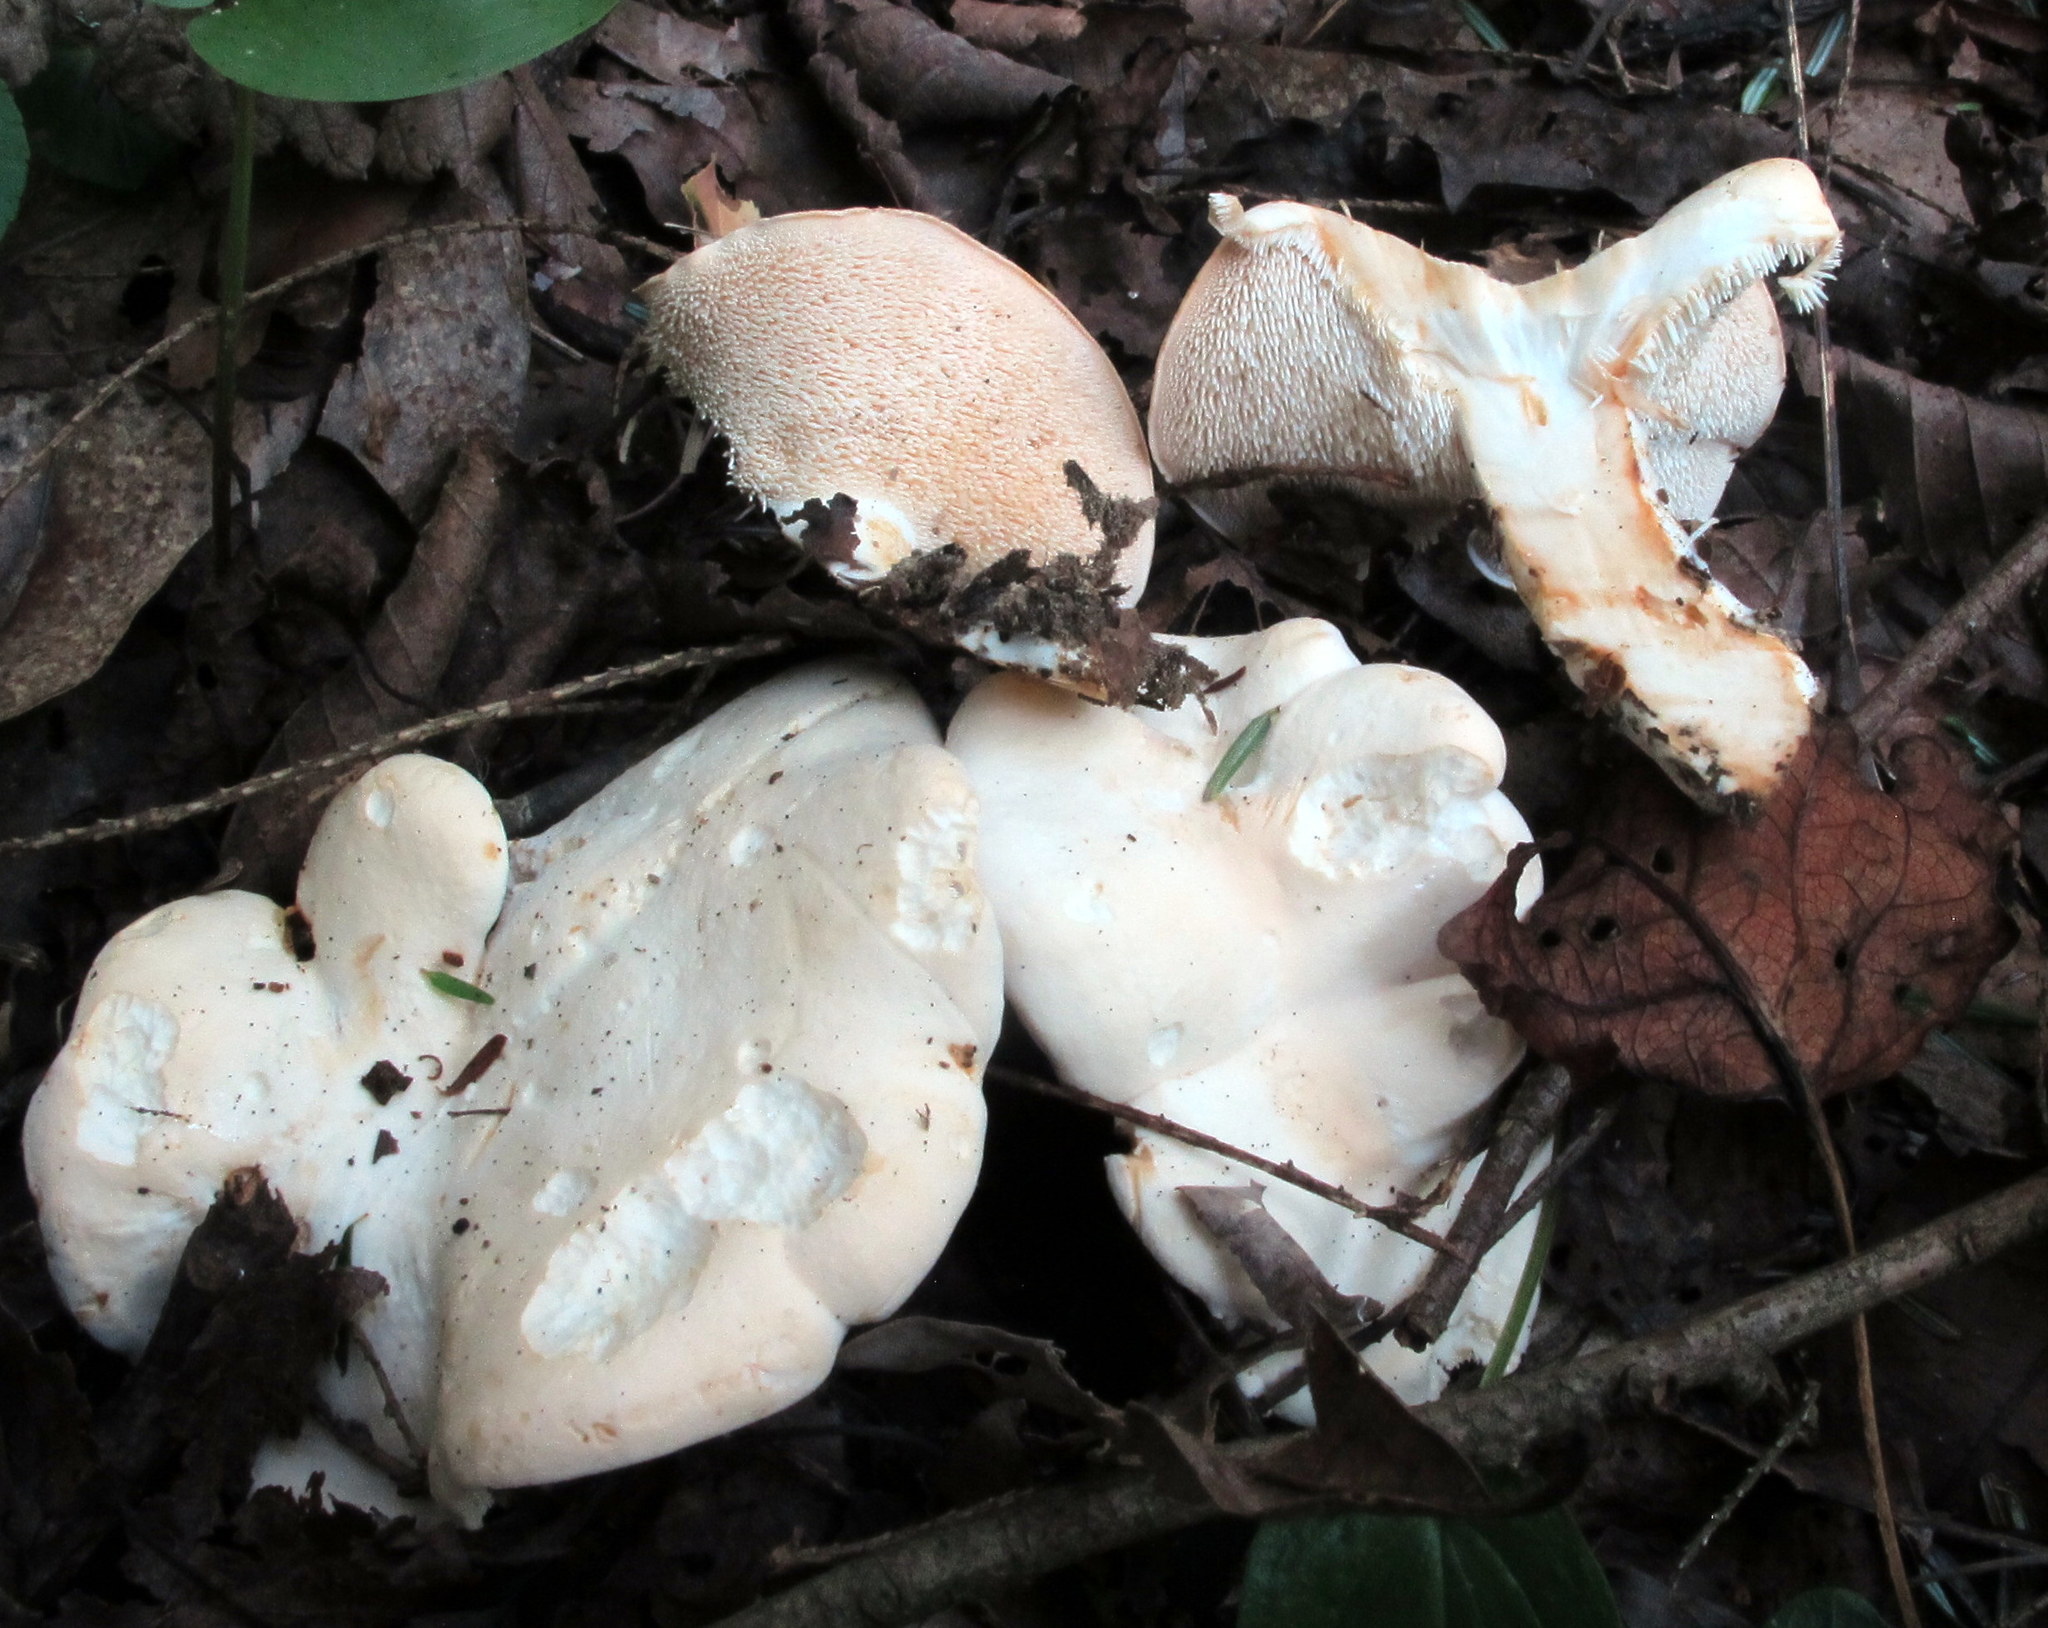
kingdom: Fungi
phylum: Basidiomycota
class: Agaricomycetes
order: Cantharellales
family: Hydnaceae
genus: Hydnum
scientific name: Hydnum albidum
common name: White hedgehog
